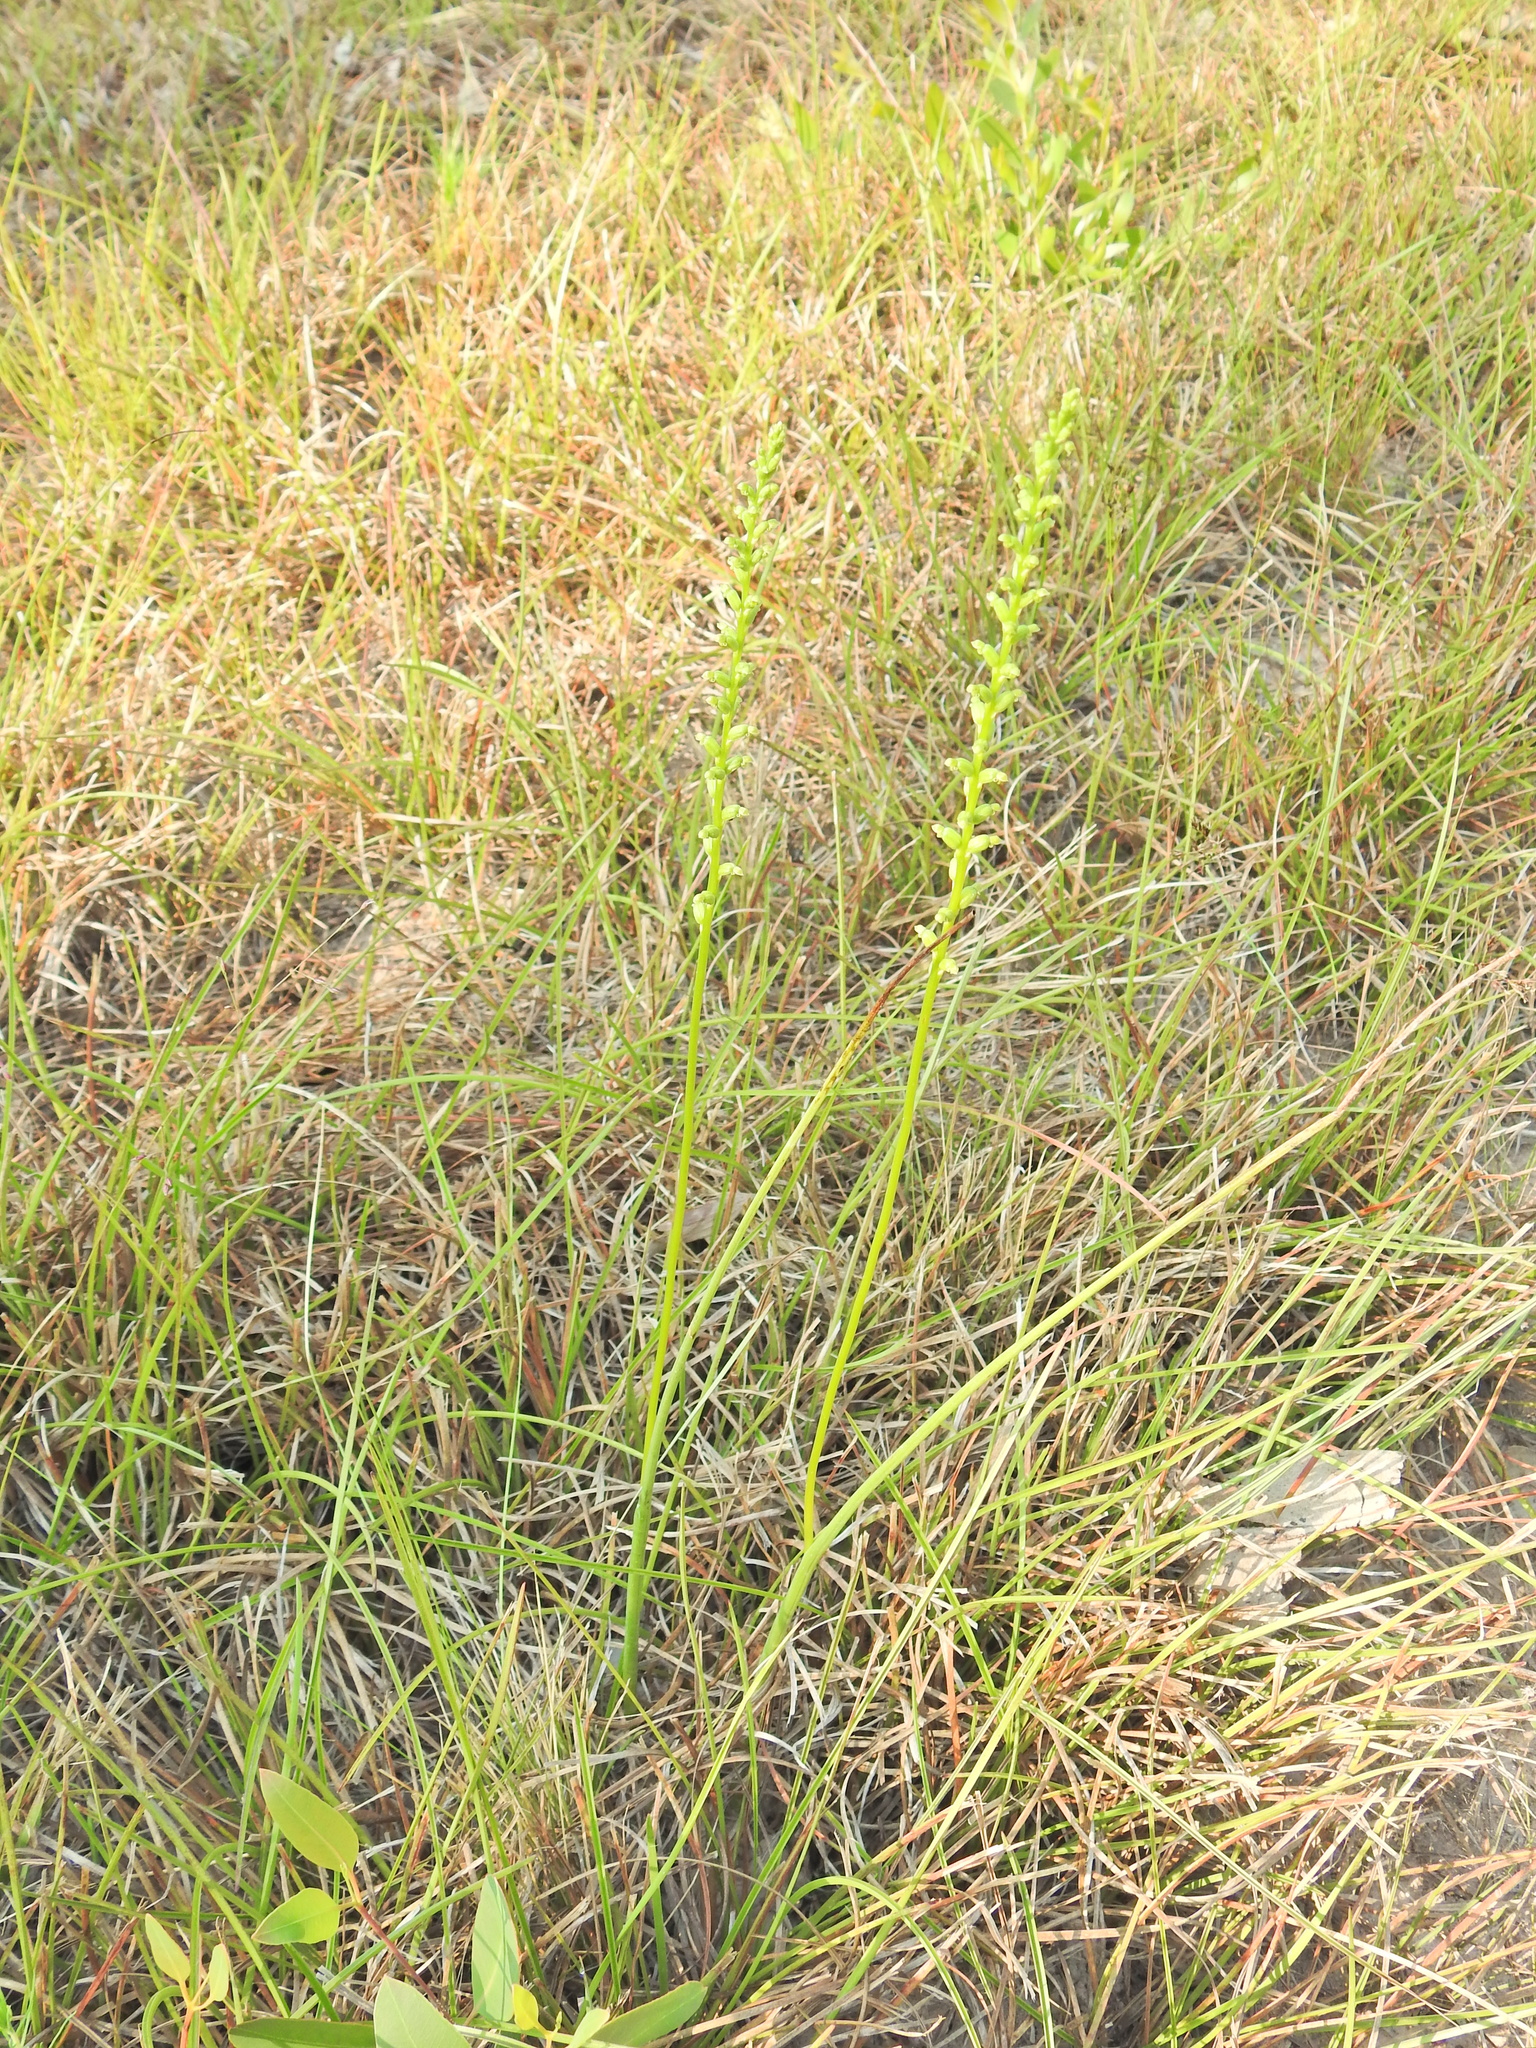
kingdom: Plantae
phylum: Tracheophyta
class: Liliopsida
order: Asparagales
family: Orchidaceae
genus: Microtis
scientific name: Microtis parviflora
